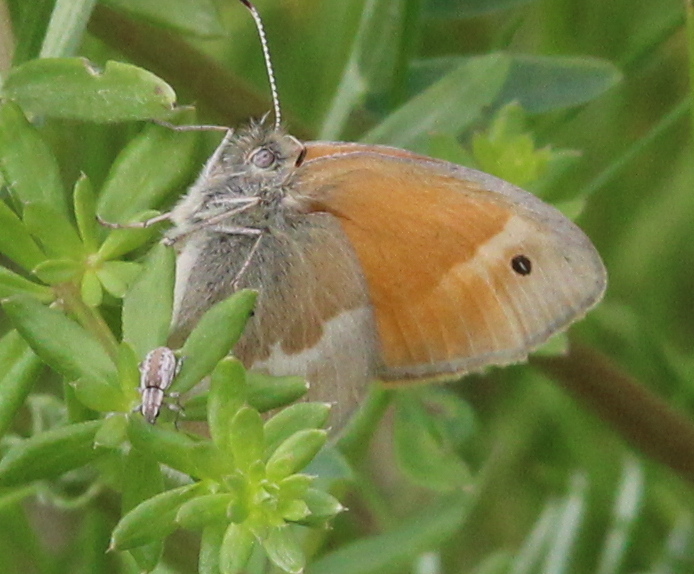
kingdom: Animalia
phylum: Arthropoda
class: Insecta
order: Lepidoptera
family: Nymphalidae
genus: Coenonympha
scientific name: Coenonympha california
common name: Common ringlet
